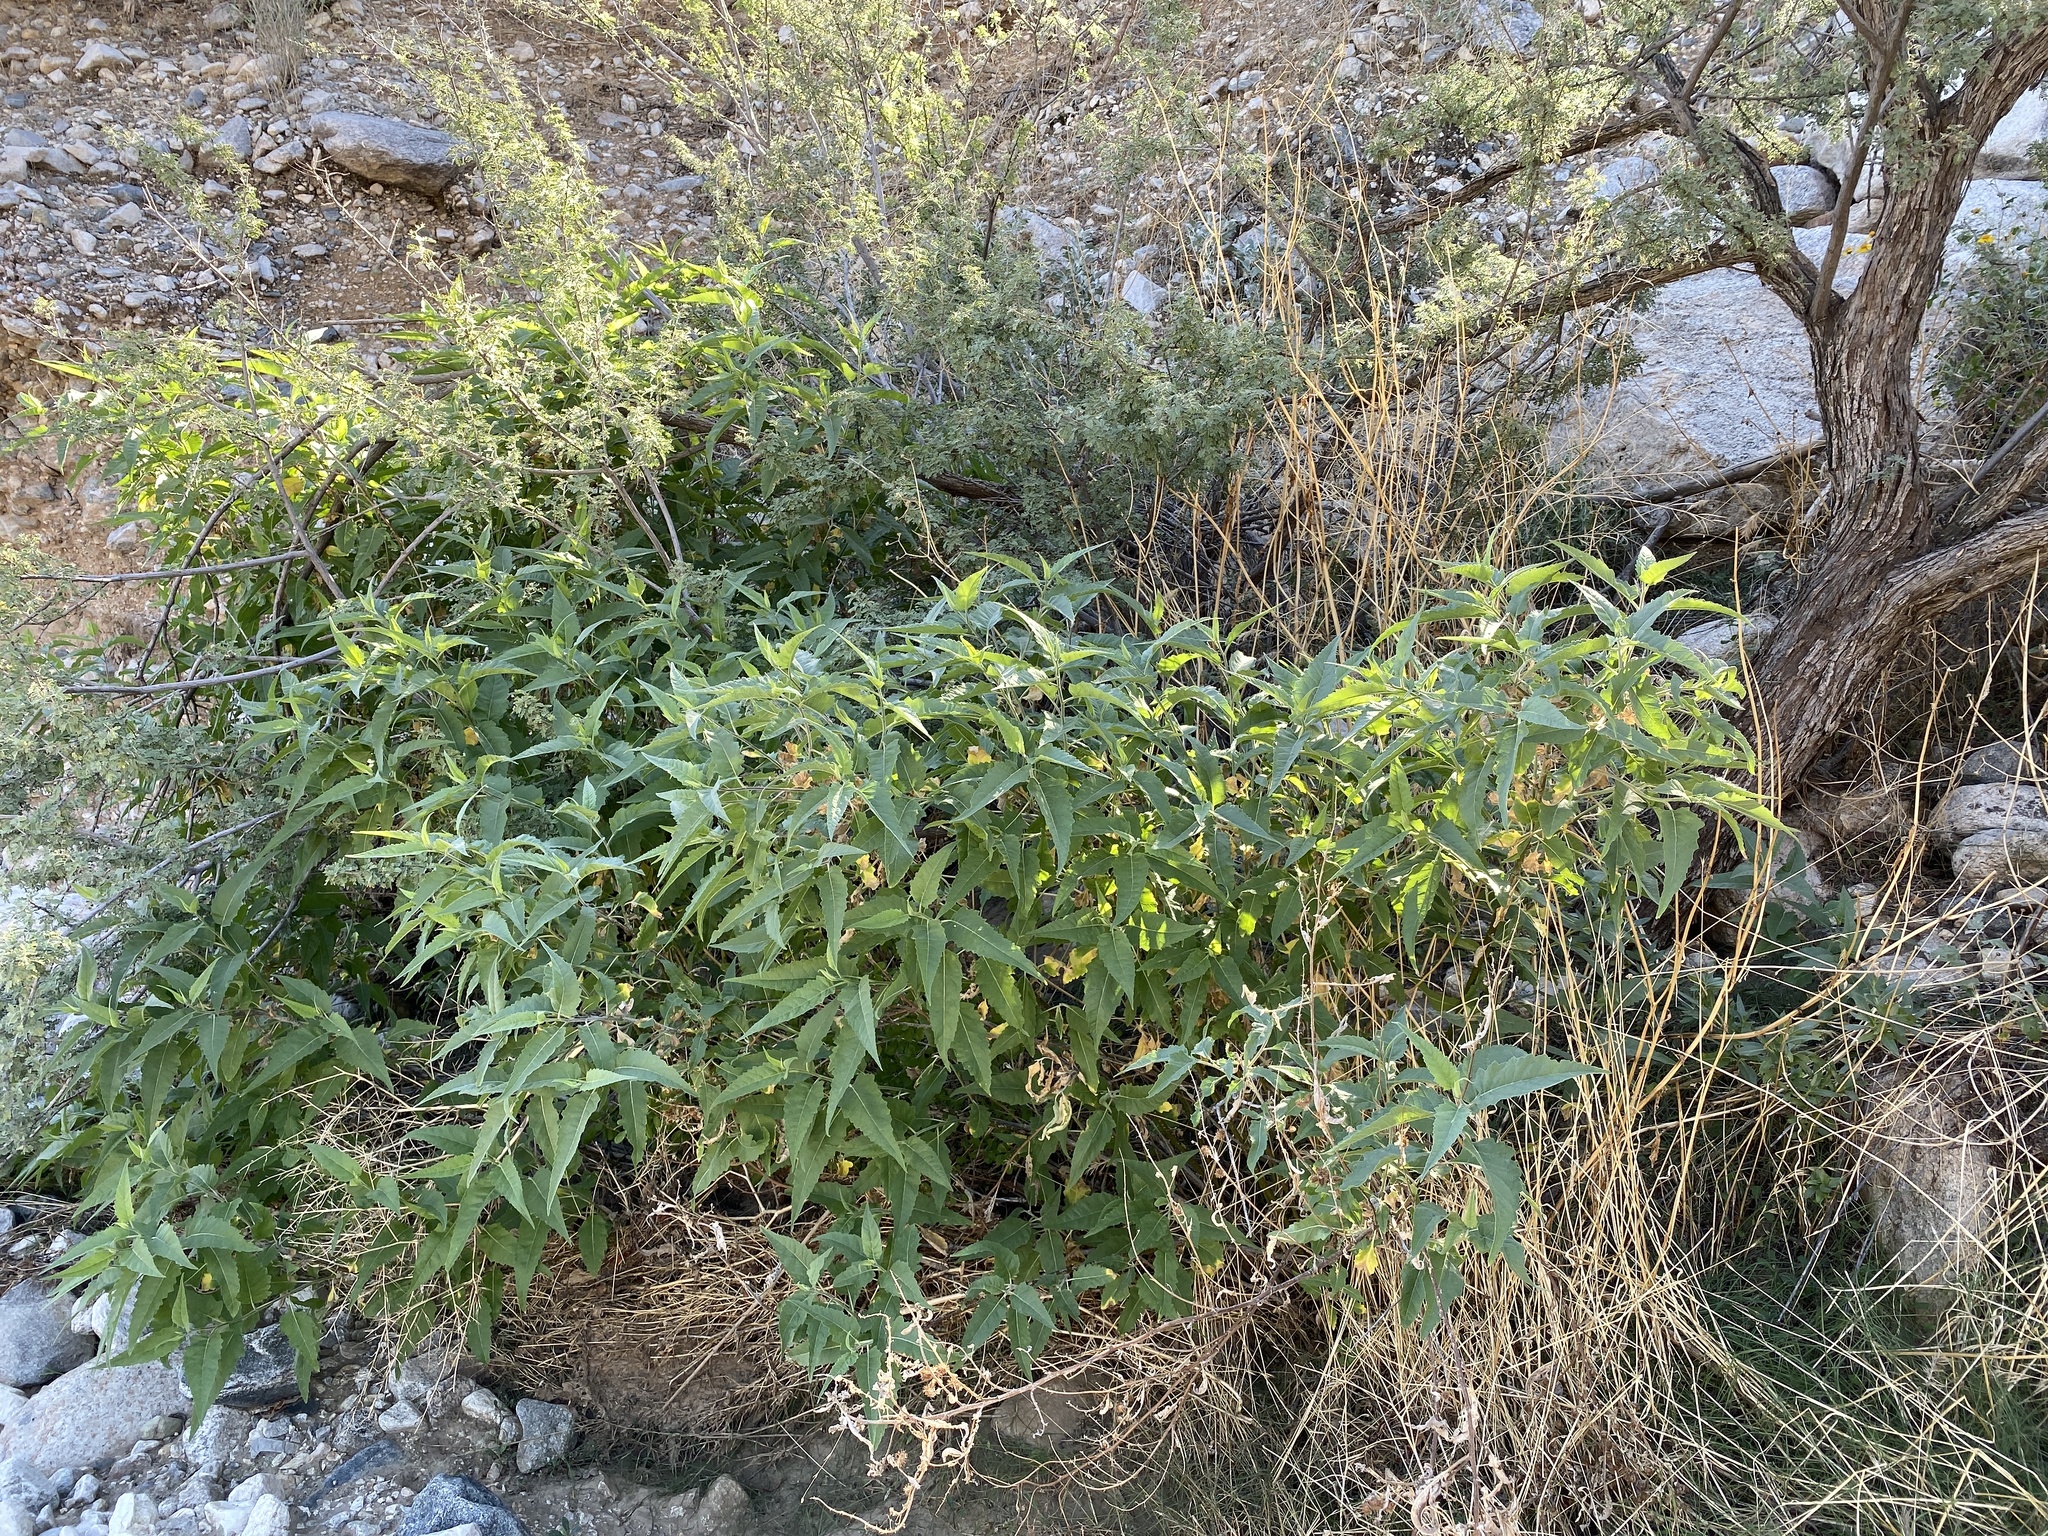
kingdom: Plantae
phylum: Tracheophyta
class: Magnoliopsida
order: Asterales
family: Asteraceae
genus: Ambrosia
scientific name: Ambrosia ambrosioides
